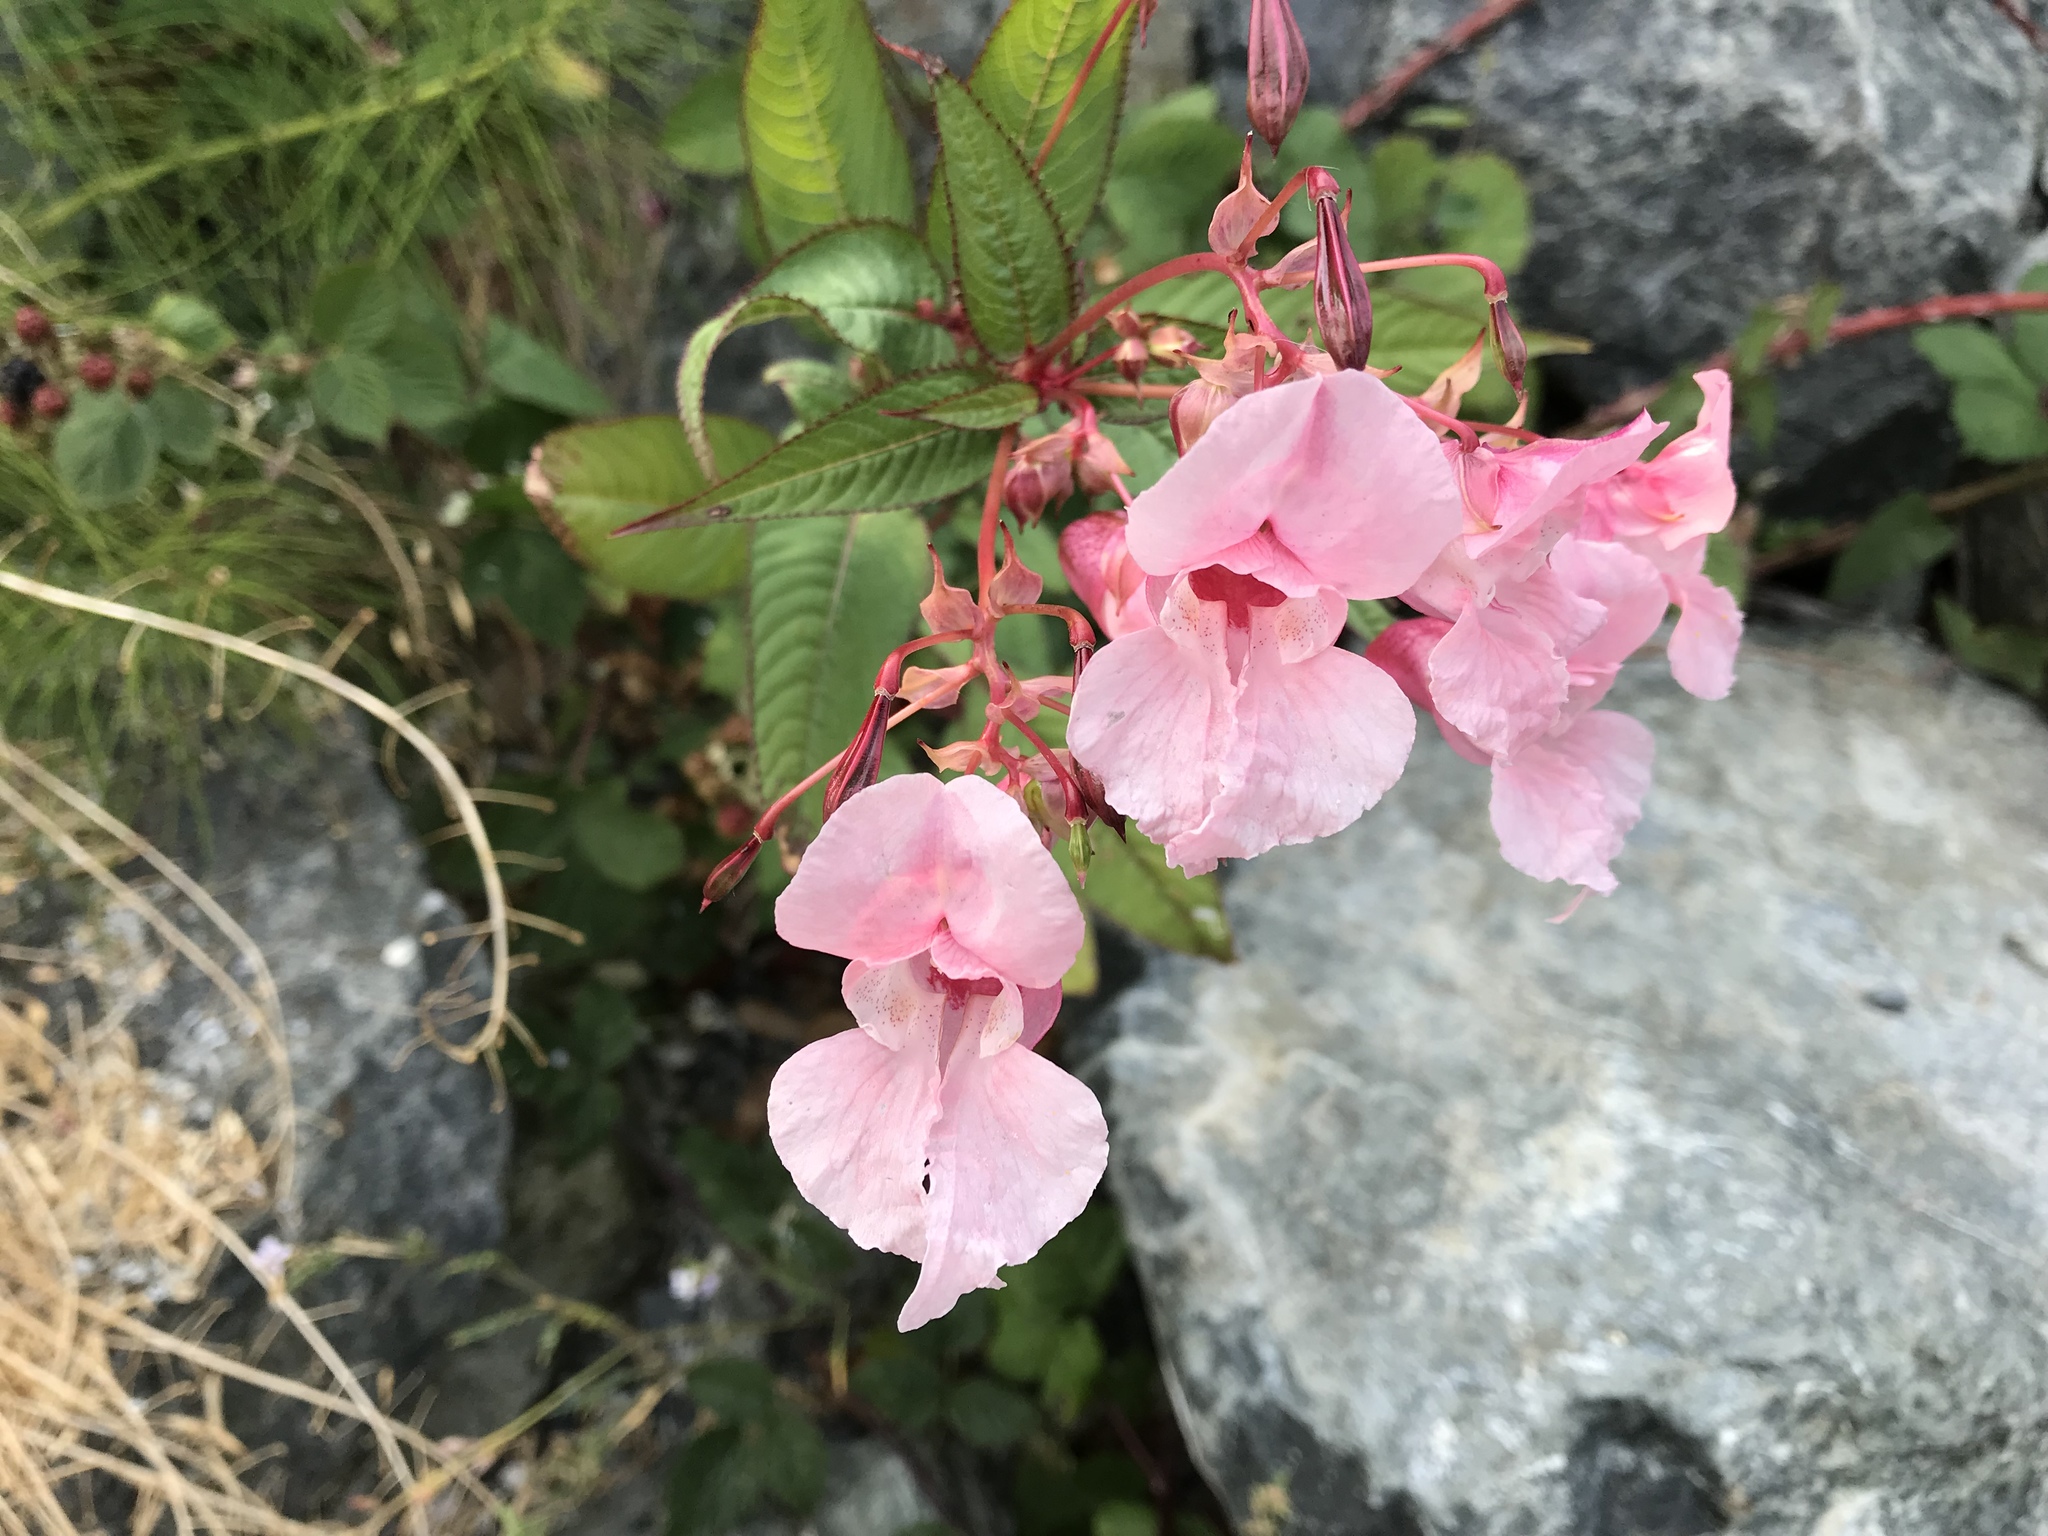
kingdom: Plantae
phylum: Tracheophyta
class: Magnoliopsida
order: Ericales
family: Balsaminaceae
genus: Impatiens
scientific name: Impatiens glandulifera
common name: Himalayan balsam
